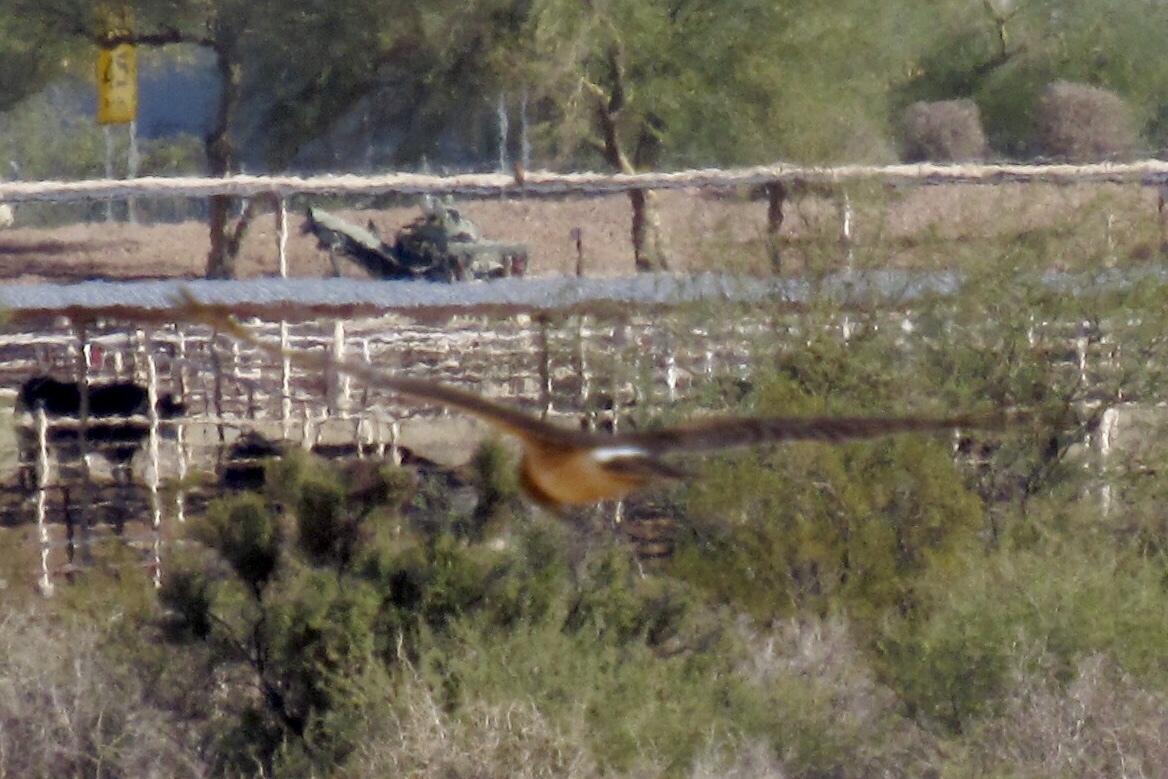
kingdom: Animalia
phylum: Chordata
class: Aves
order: Accipitriformes
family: Accipitridae
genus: Circus
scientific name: Circus cyaneus
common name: Hen harrier
